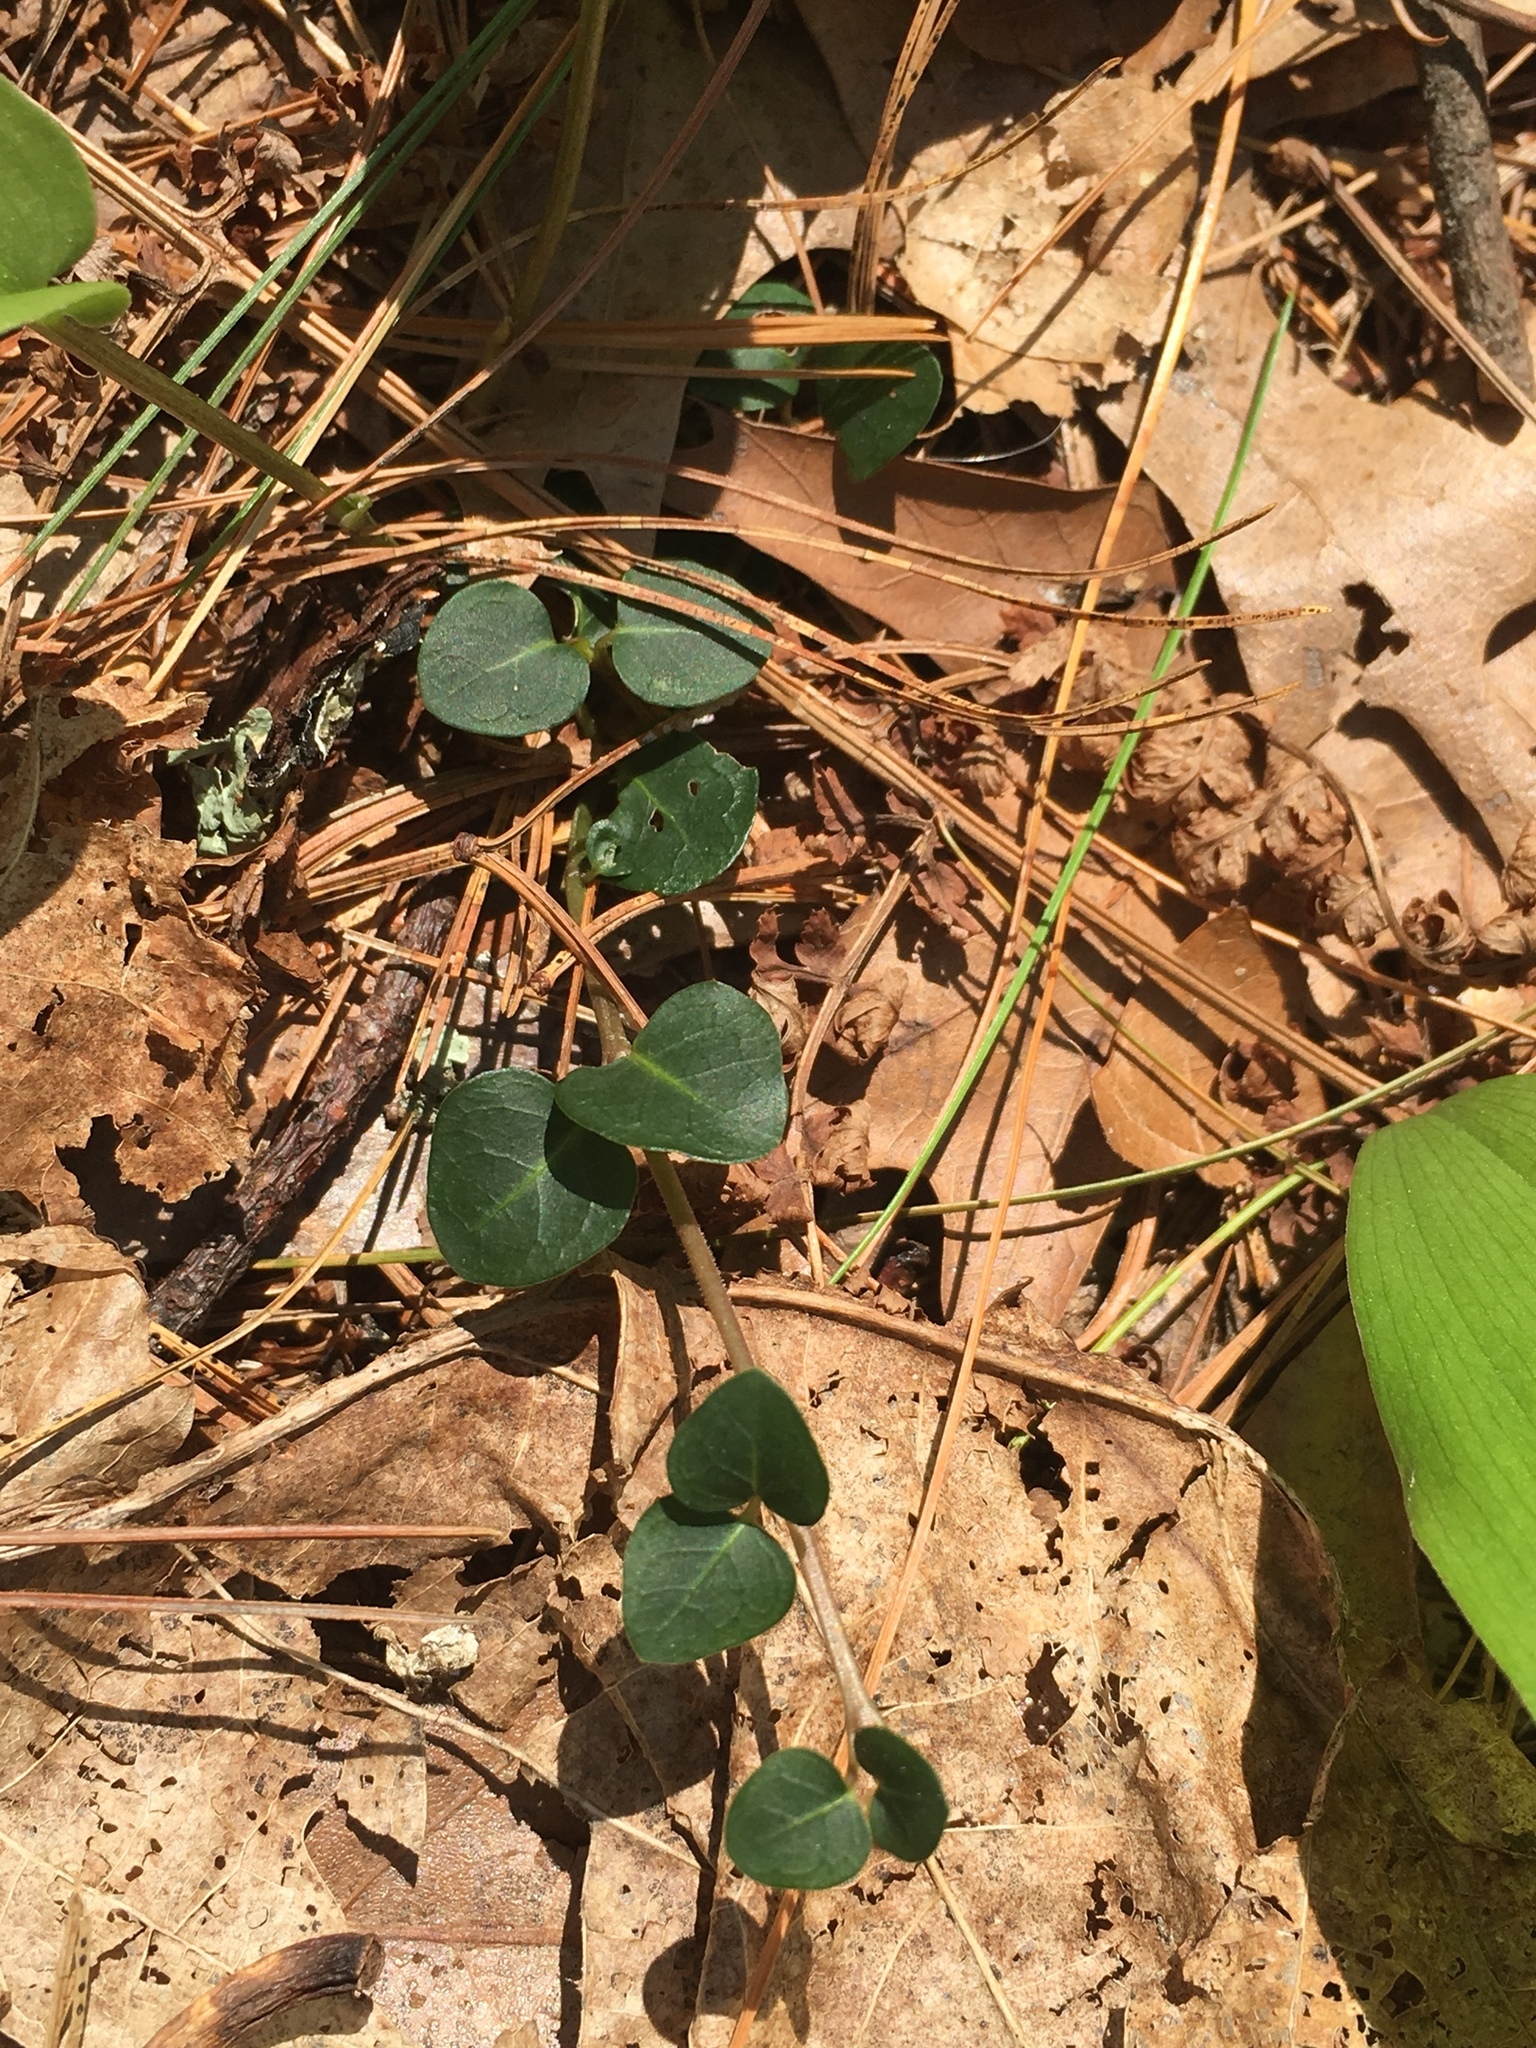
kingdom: Plantae
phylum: Tracheophyta
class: Magnoliopsida
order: Gentianales
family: Rubiaceae
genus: Mitchella
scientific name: Mitchella repens
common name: Partridge-berry
